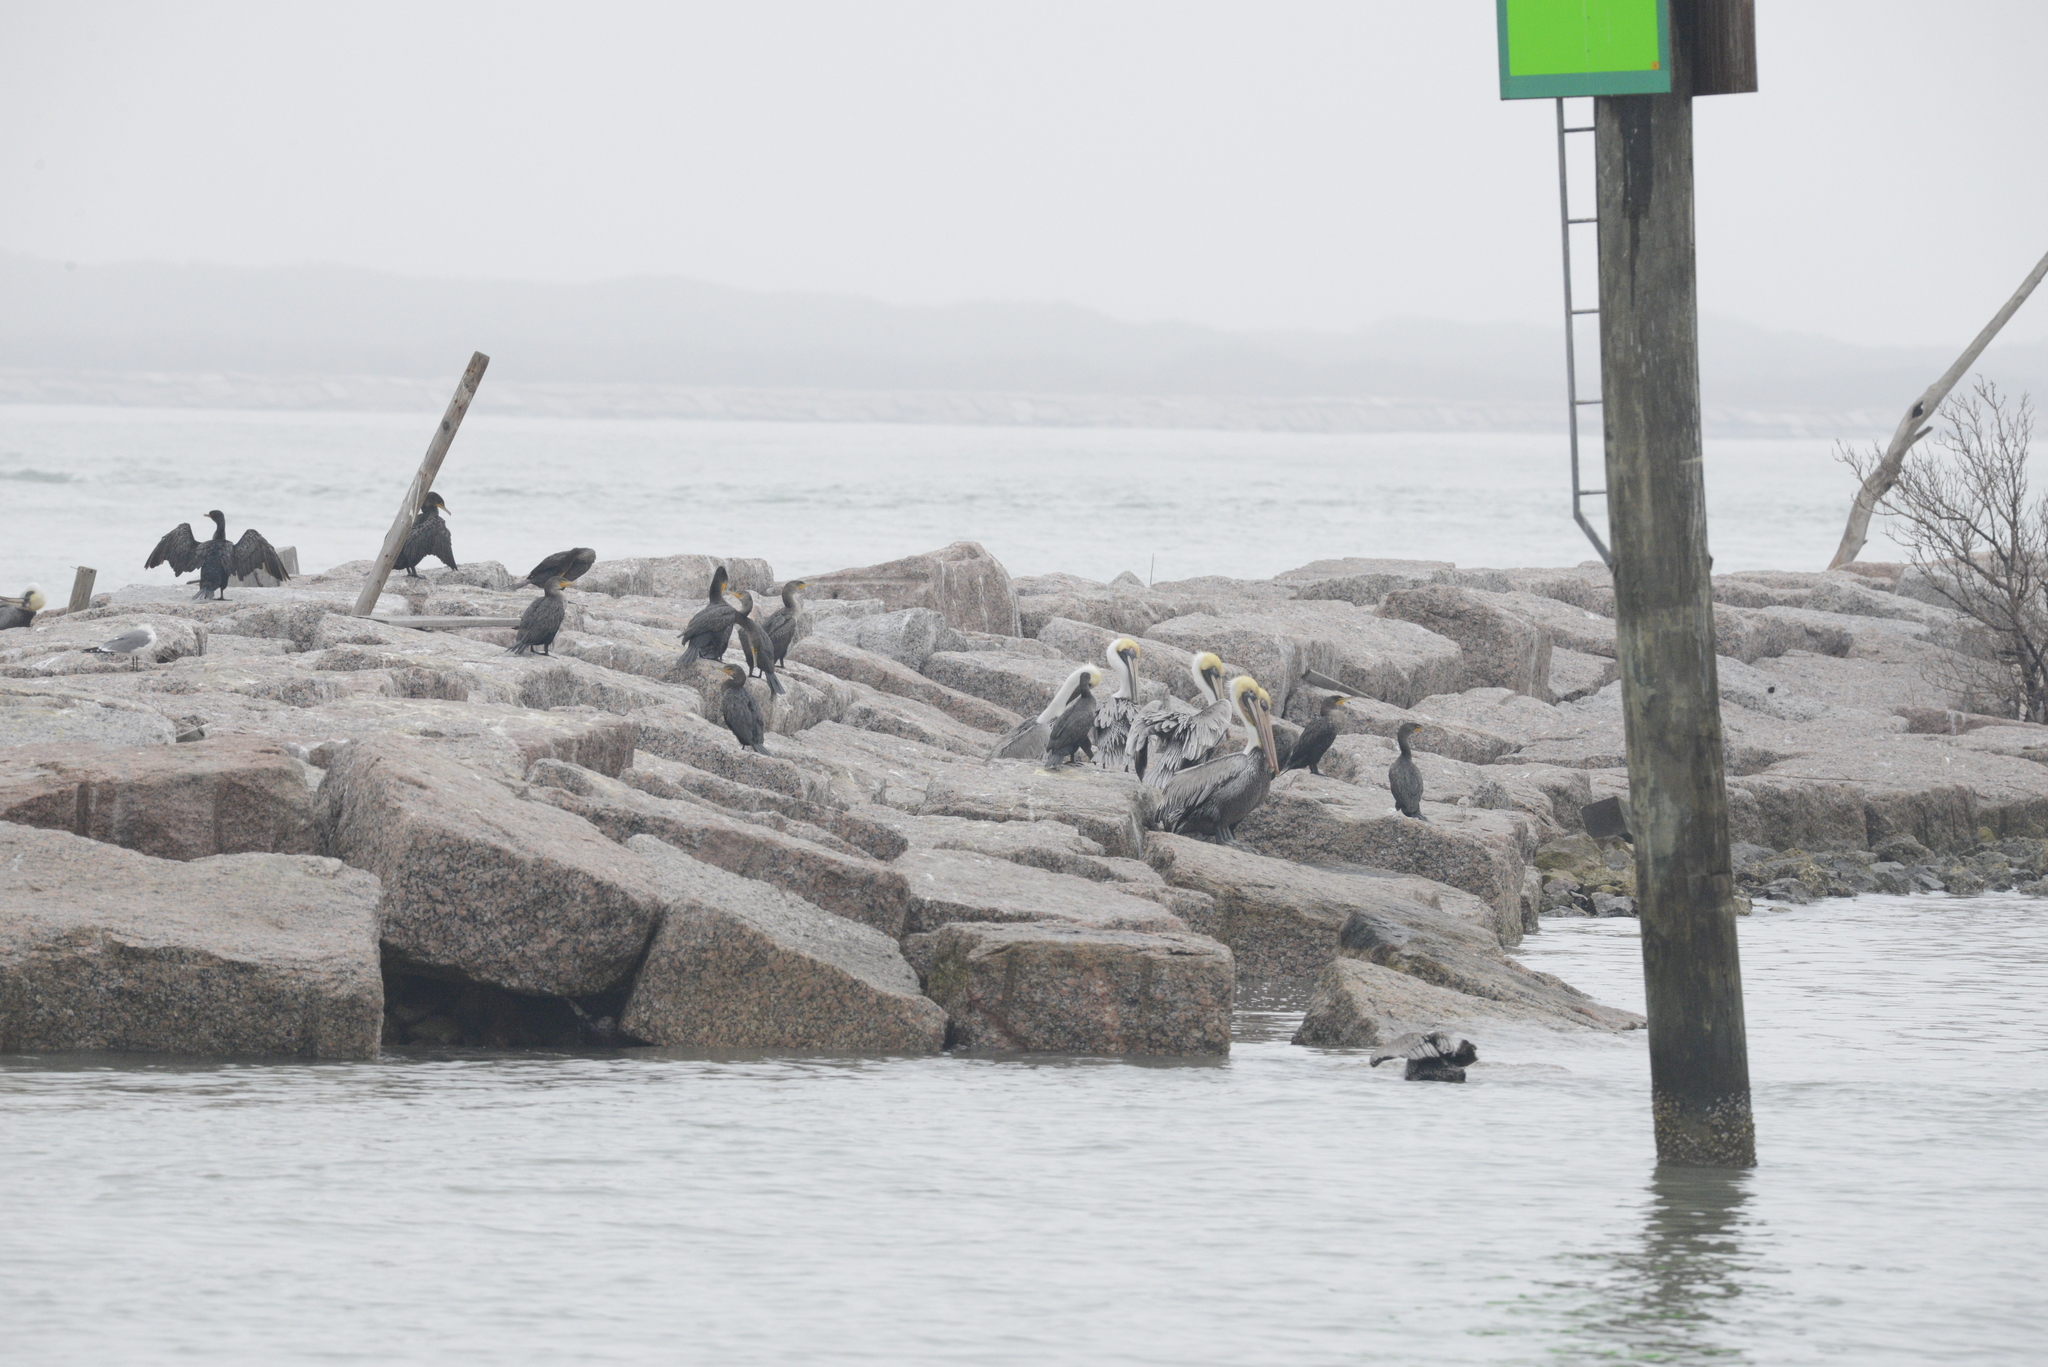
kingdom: Animalia
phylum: Chordata
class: Aves
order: Suliformes
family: Phalacrocoracidae
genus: Phalacrocorax
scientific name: Phalacrocorax auritus
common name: Double-crested cormorant
